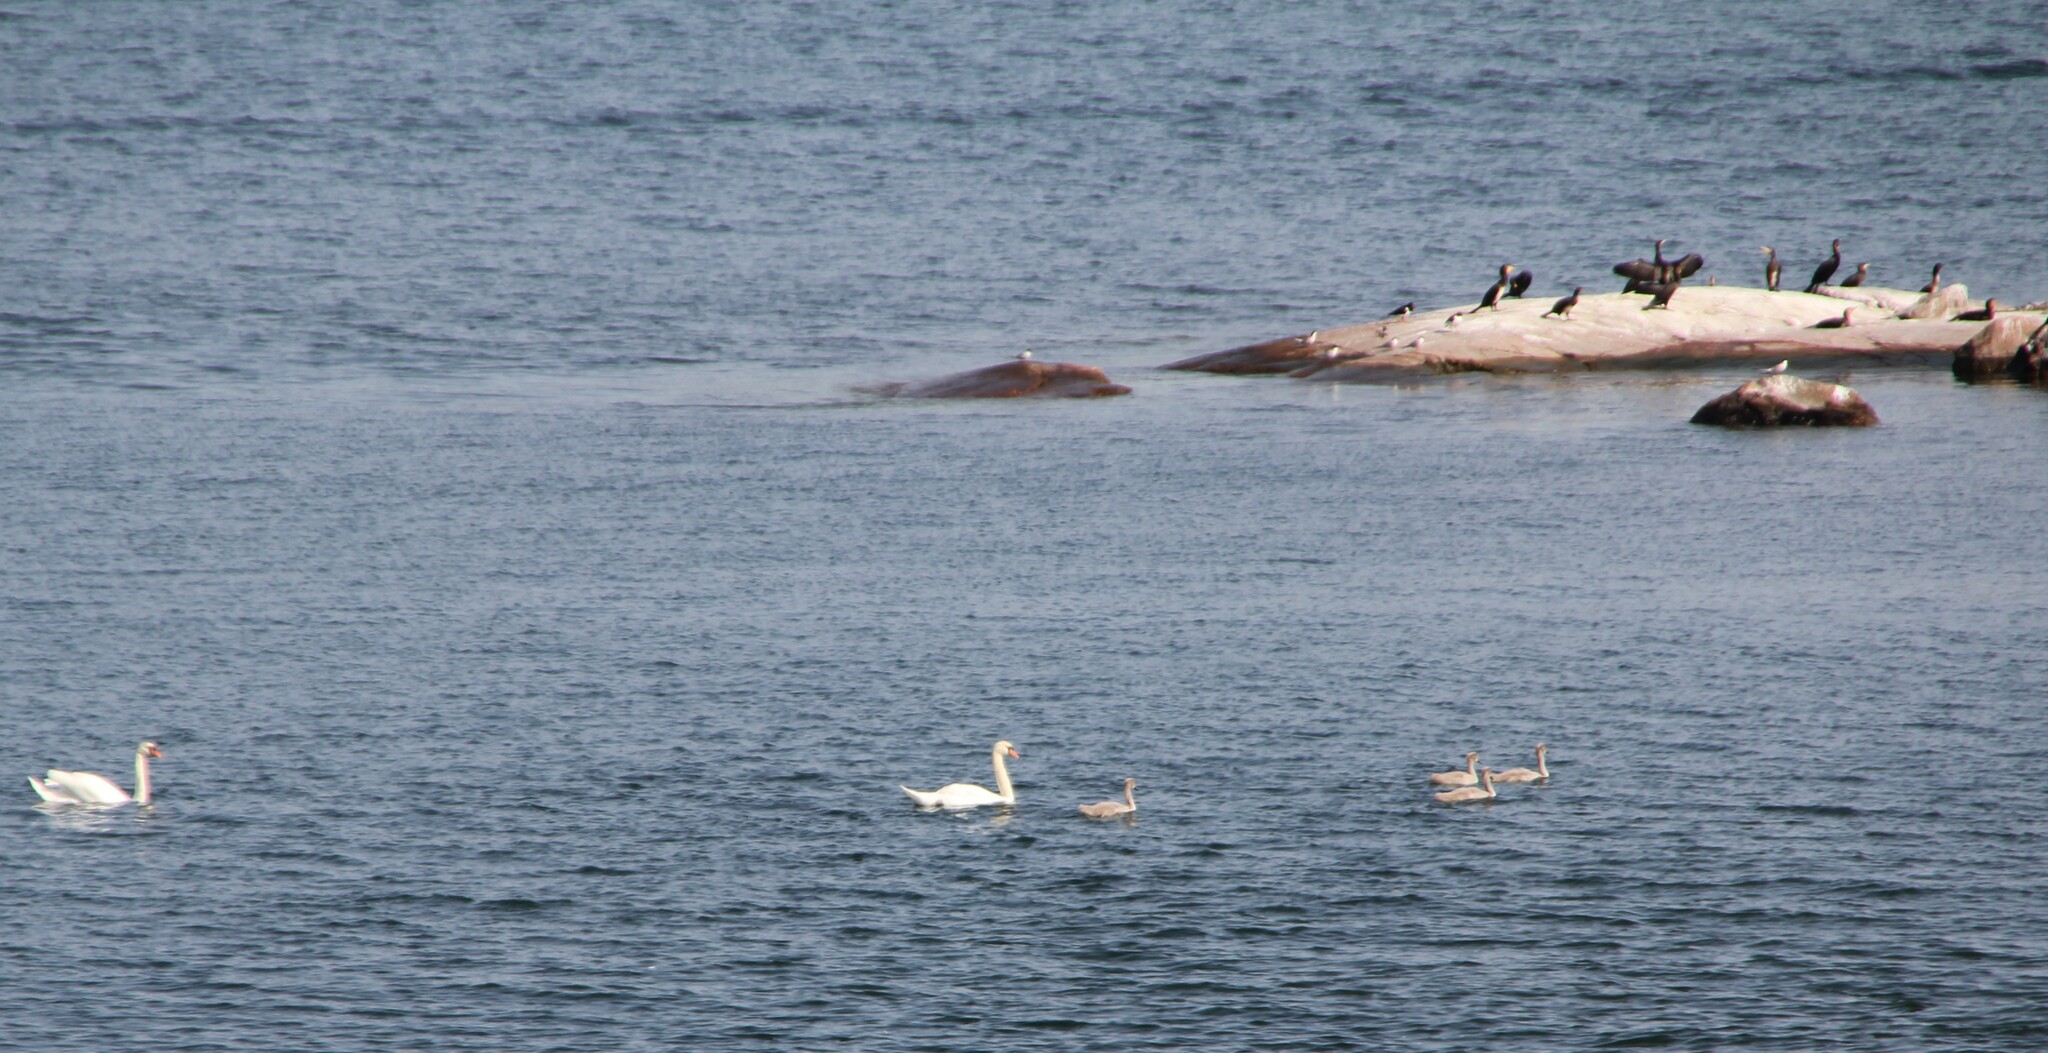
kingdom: Animalia
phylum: Chordata
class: Aves
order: Suliformes
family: Phalacrocoracidae
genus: Phalacrocorax
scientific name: Phalacrocorax carbo
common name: Great cormorant
